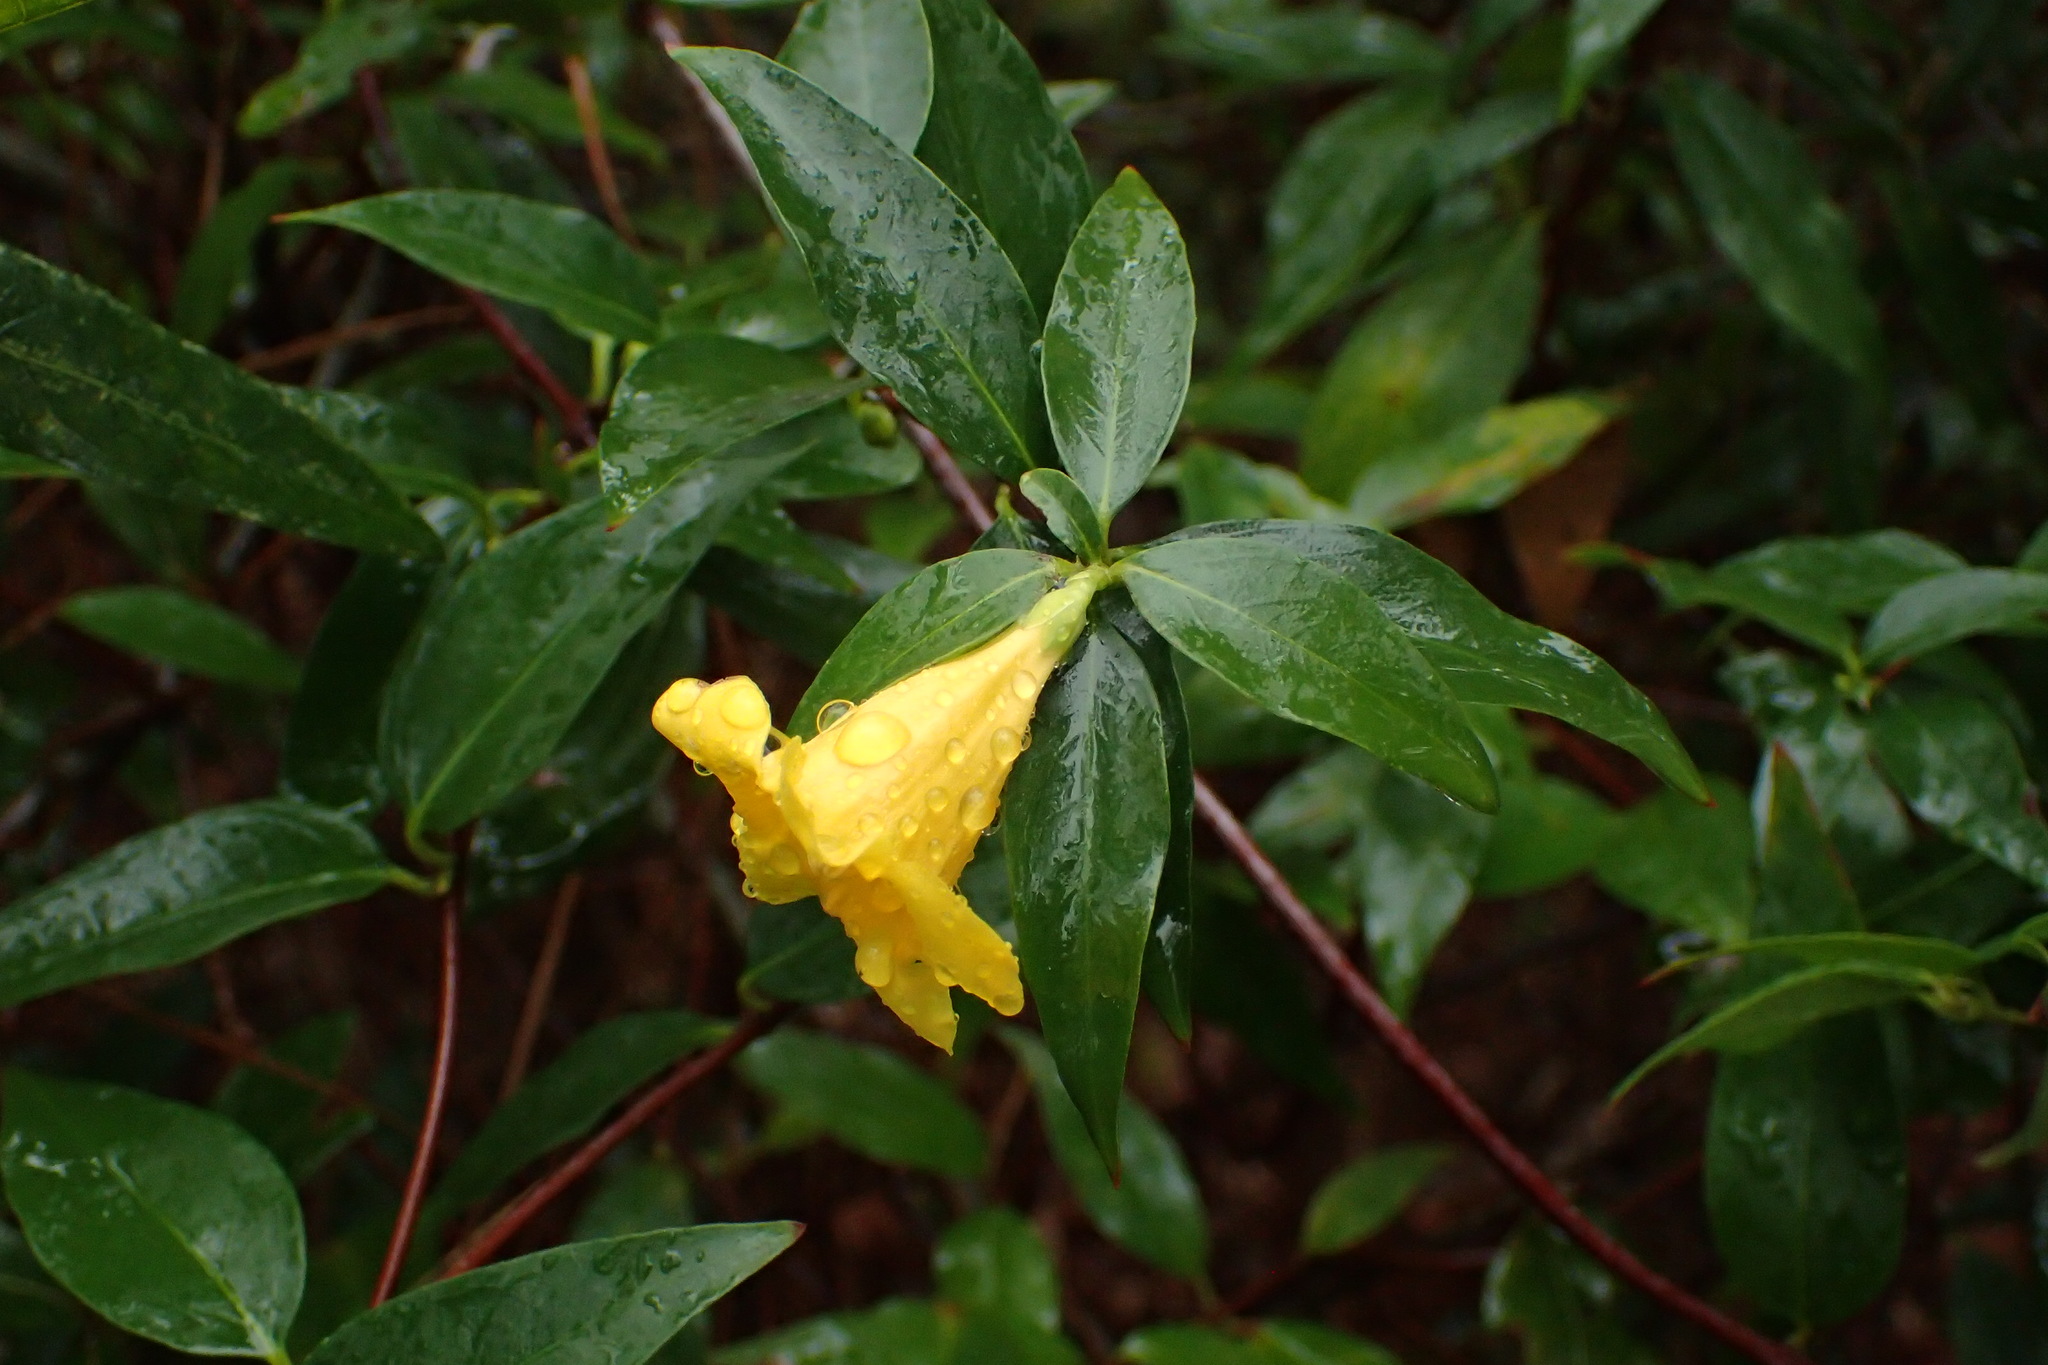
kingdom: Plantae
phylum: Tracheophyta
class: Magnoliopsida
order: Gentianales
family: Gelsemiaceae
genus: Gelsemium
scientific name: Gelsemium sempervirens
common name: Carolina-jasmine
